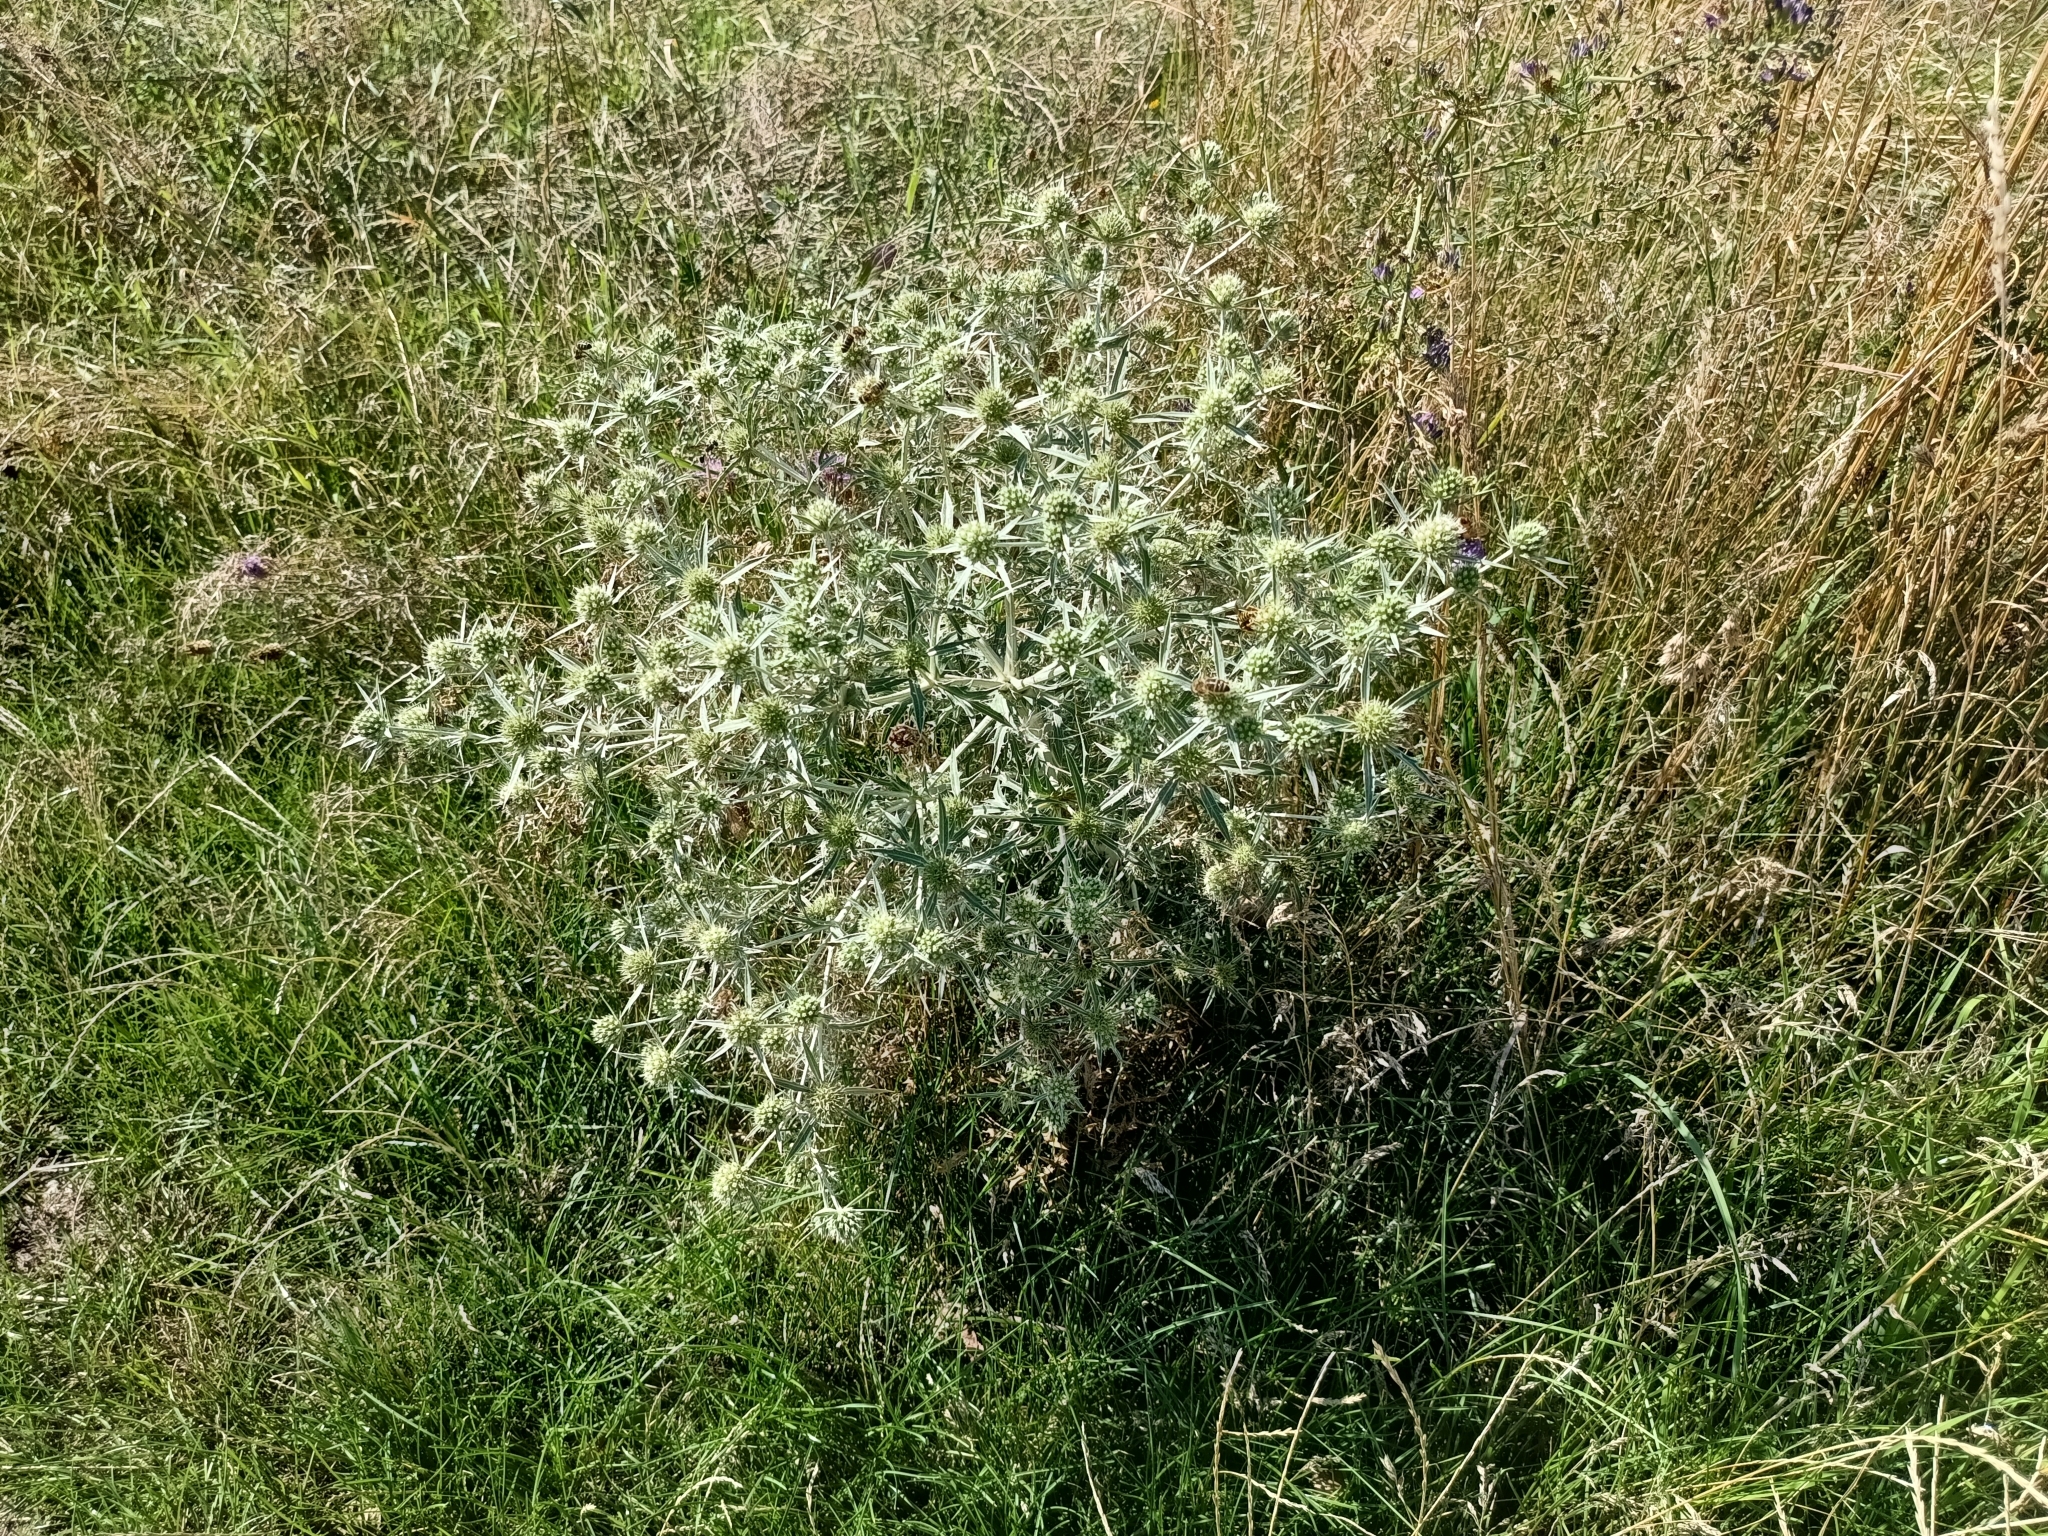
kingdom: Plantae
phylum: Tracheophyta
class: Magnoliopsida
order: Apiales
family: Apiaceae
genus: Eryngium
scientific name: Eryngium campestre
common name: Field eryngo
